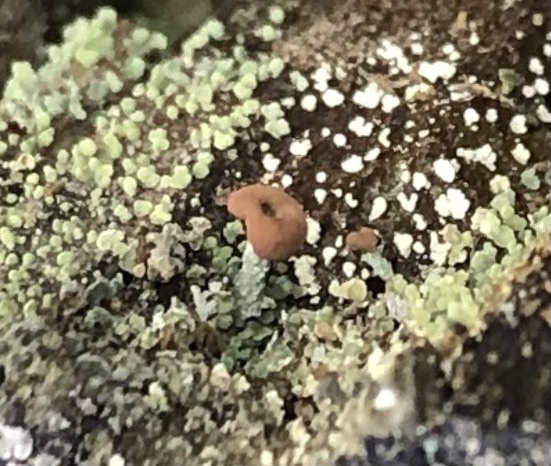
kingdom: Fungi
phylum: Ascomycota
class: Lecanoromycetes
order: Lecanorales
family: Cladoniaceae
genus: Cladonia
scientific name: Cladonia peziziformis
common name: Cup lichen
